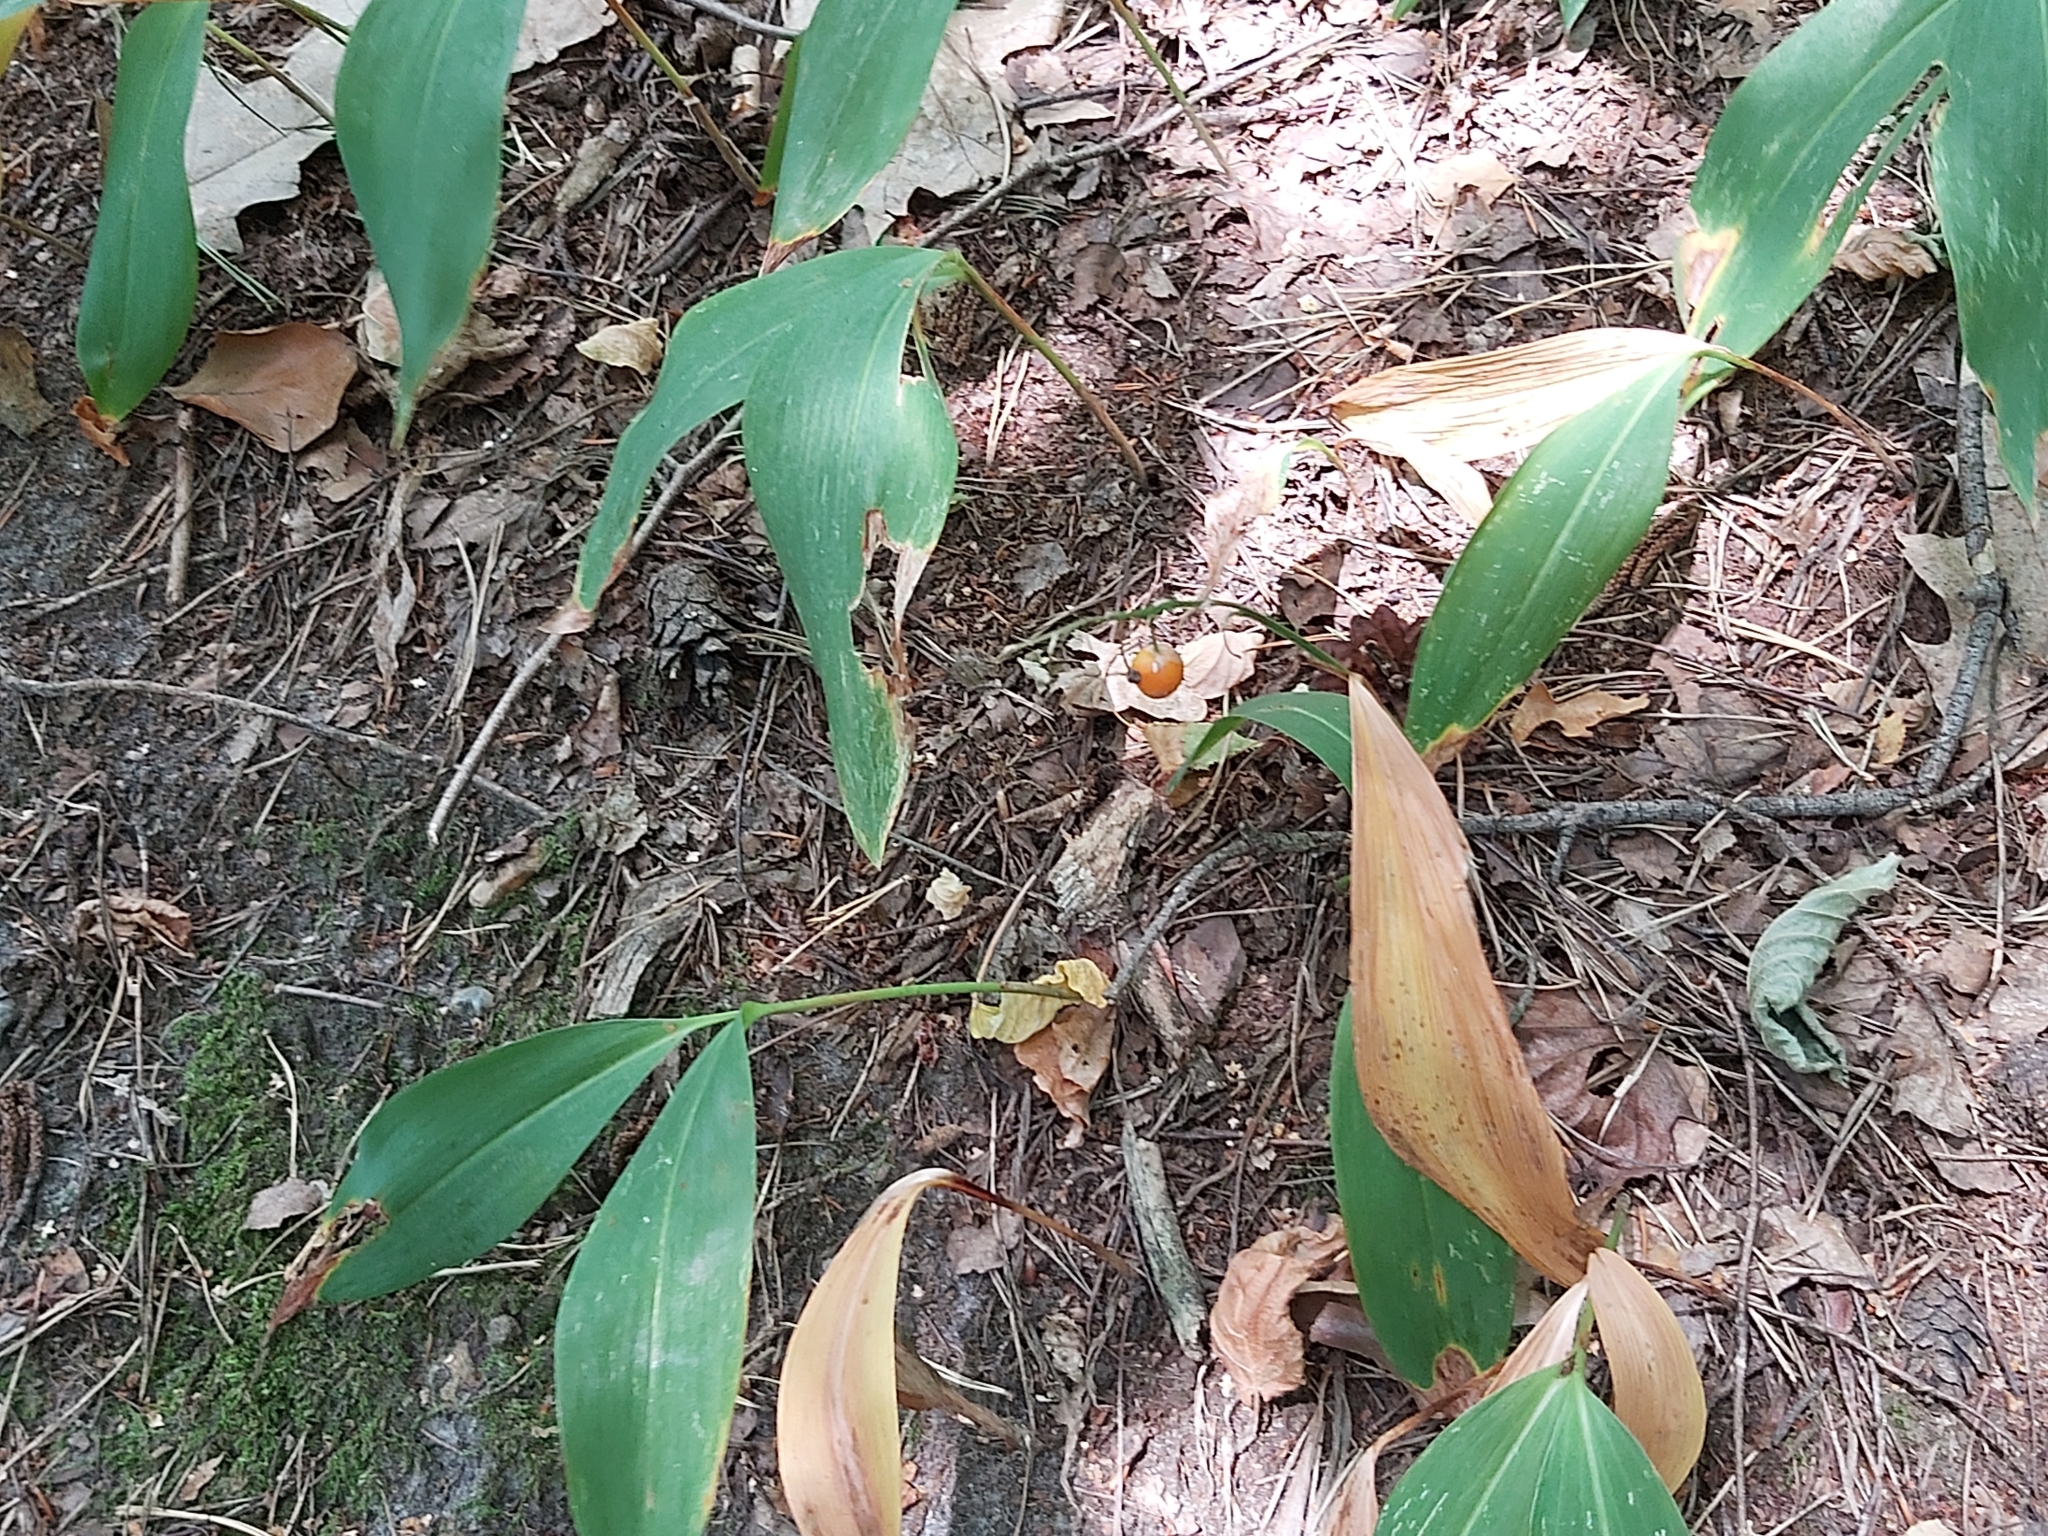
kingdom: Plantae
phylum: Tracheophyta
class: Liliopsida
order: Asparagales
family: Asparagaceae
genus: Convallaria
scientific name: Convallaria majalis
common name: Lily-of-the-valley
